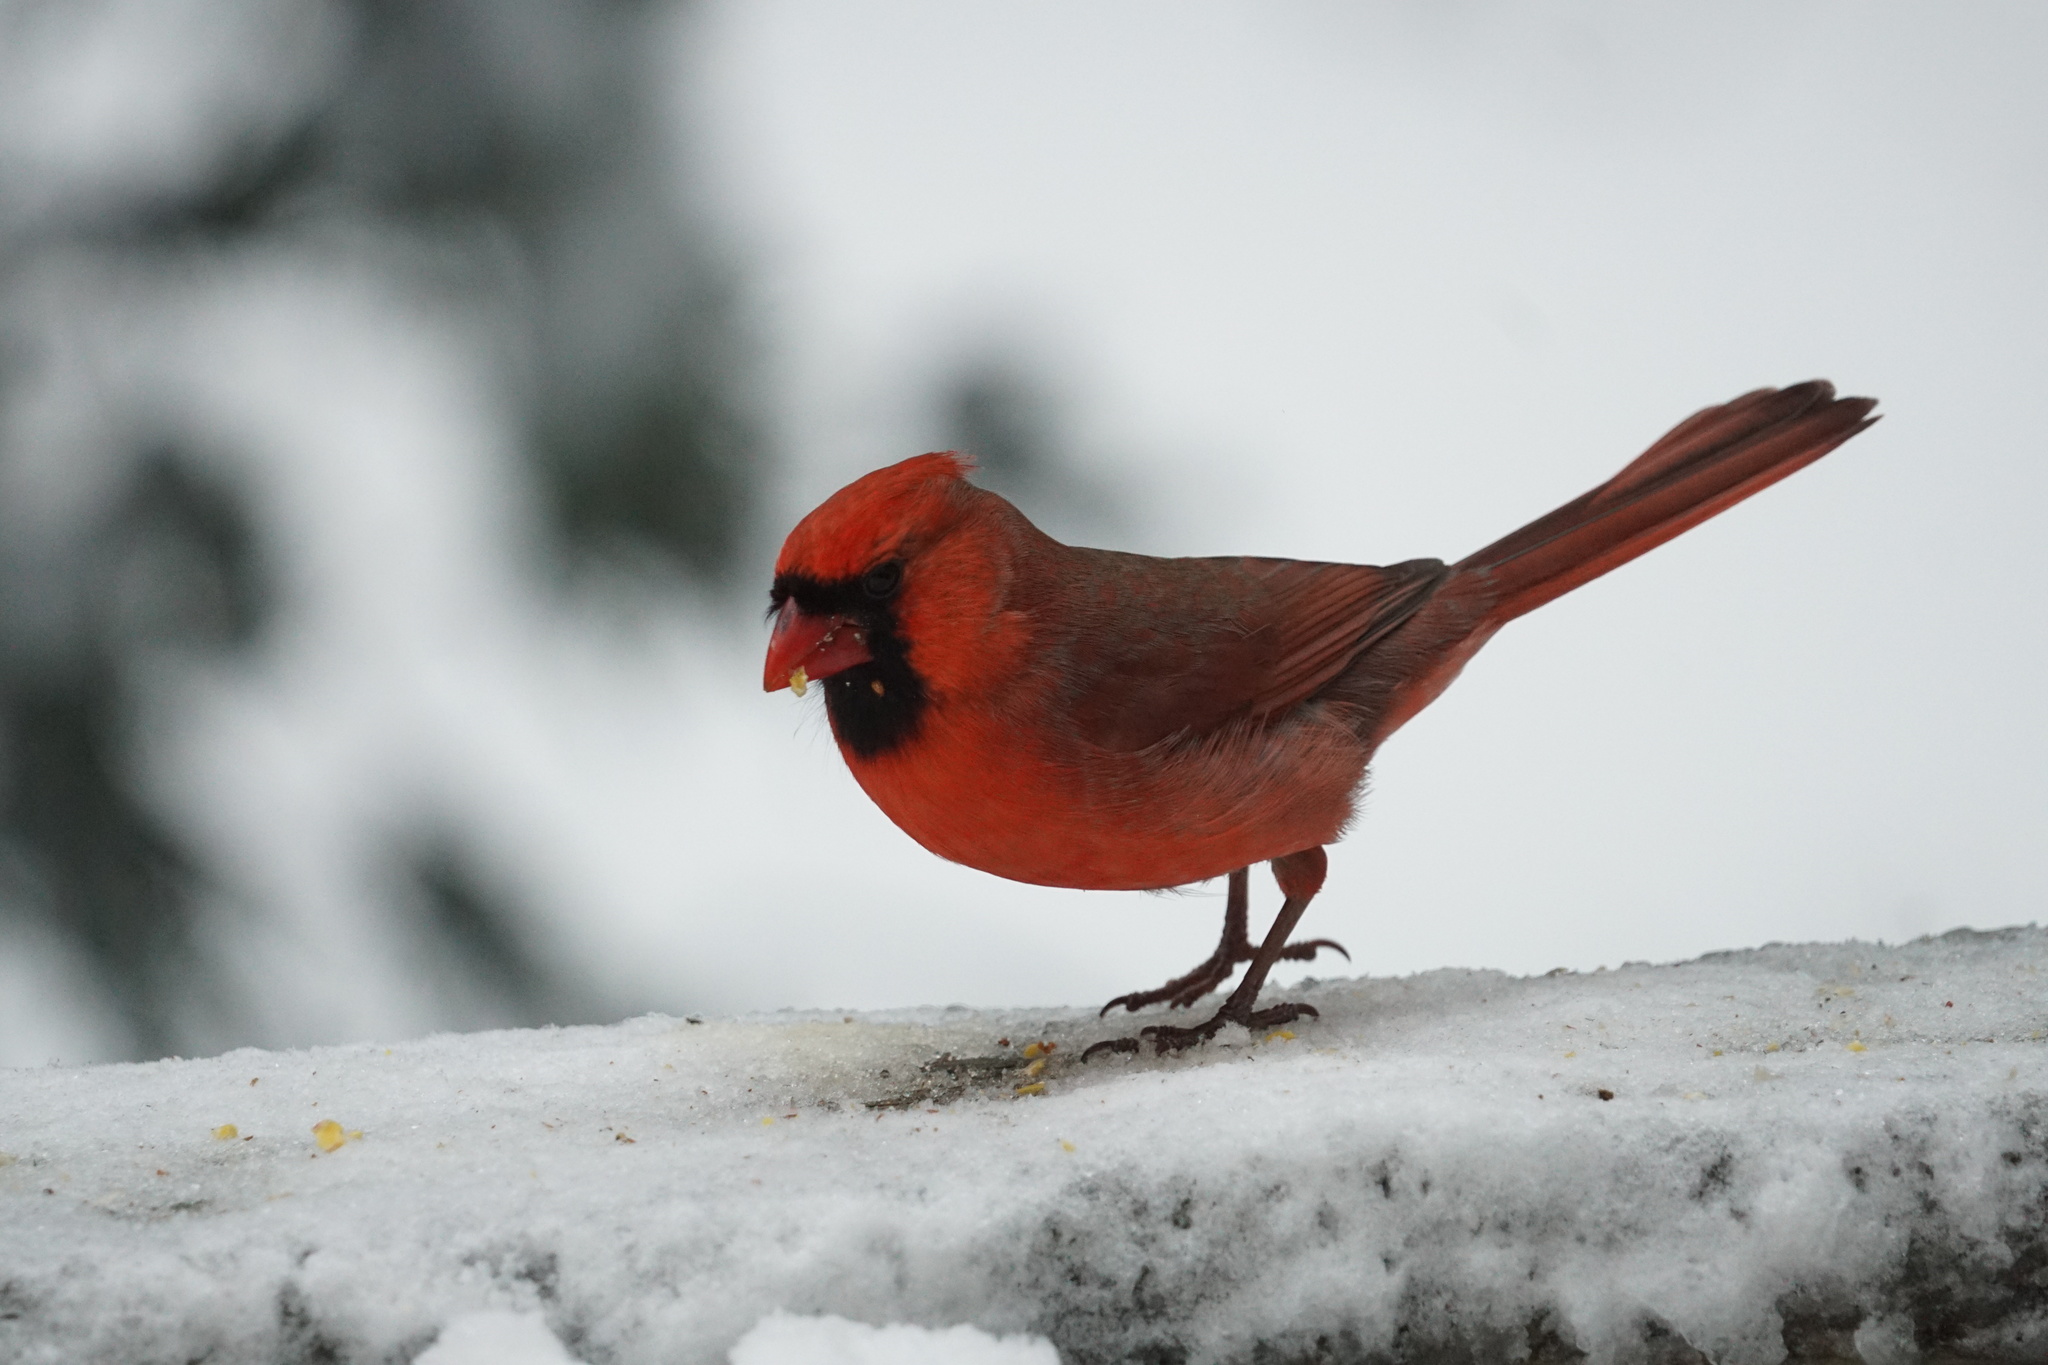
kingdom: Animalia
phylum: Chordata
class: Aves
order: Passeriformes
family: Cardinalidae
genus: Cardinalis
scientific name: Cardinalis cardinalis
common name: Northern cardinal
